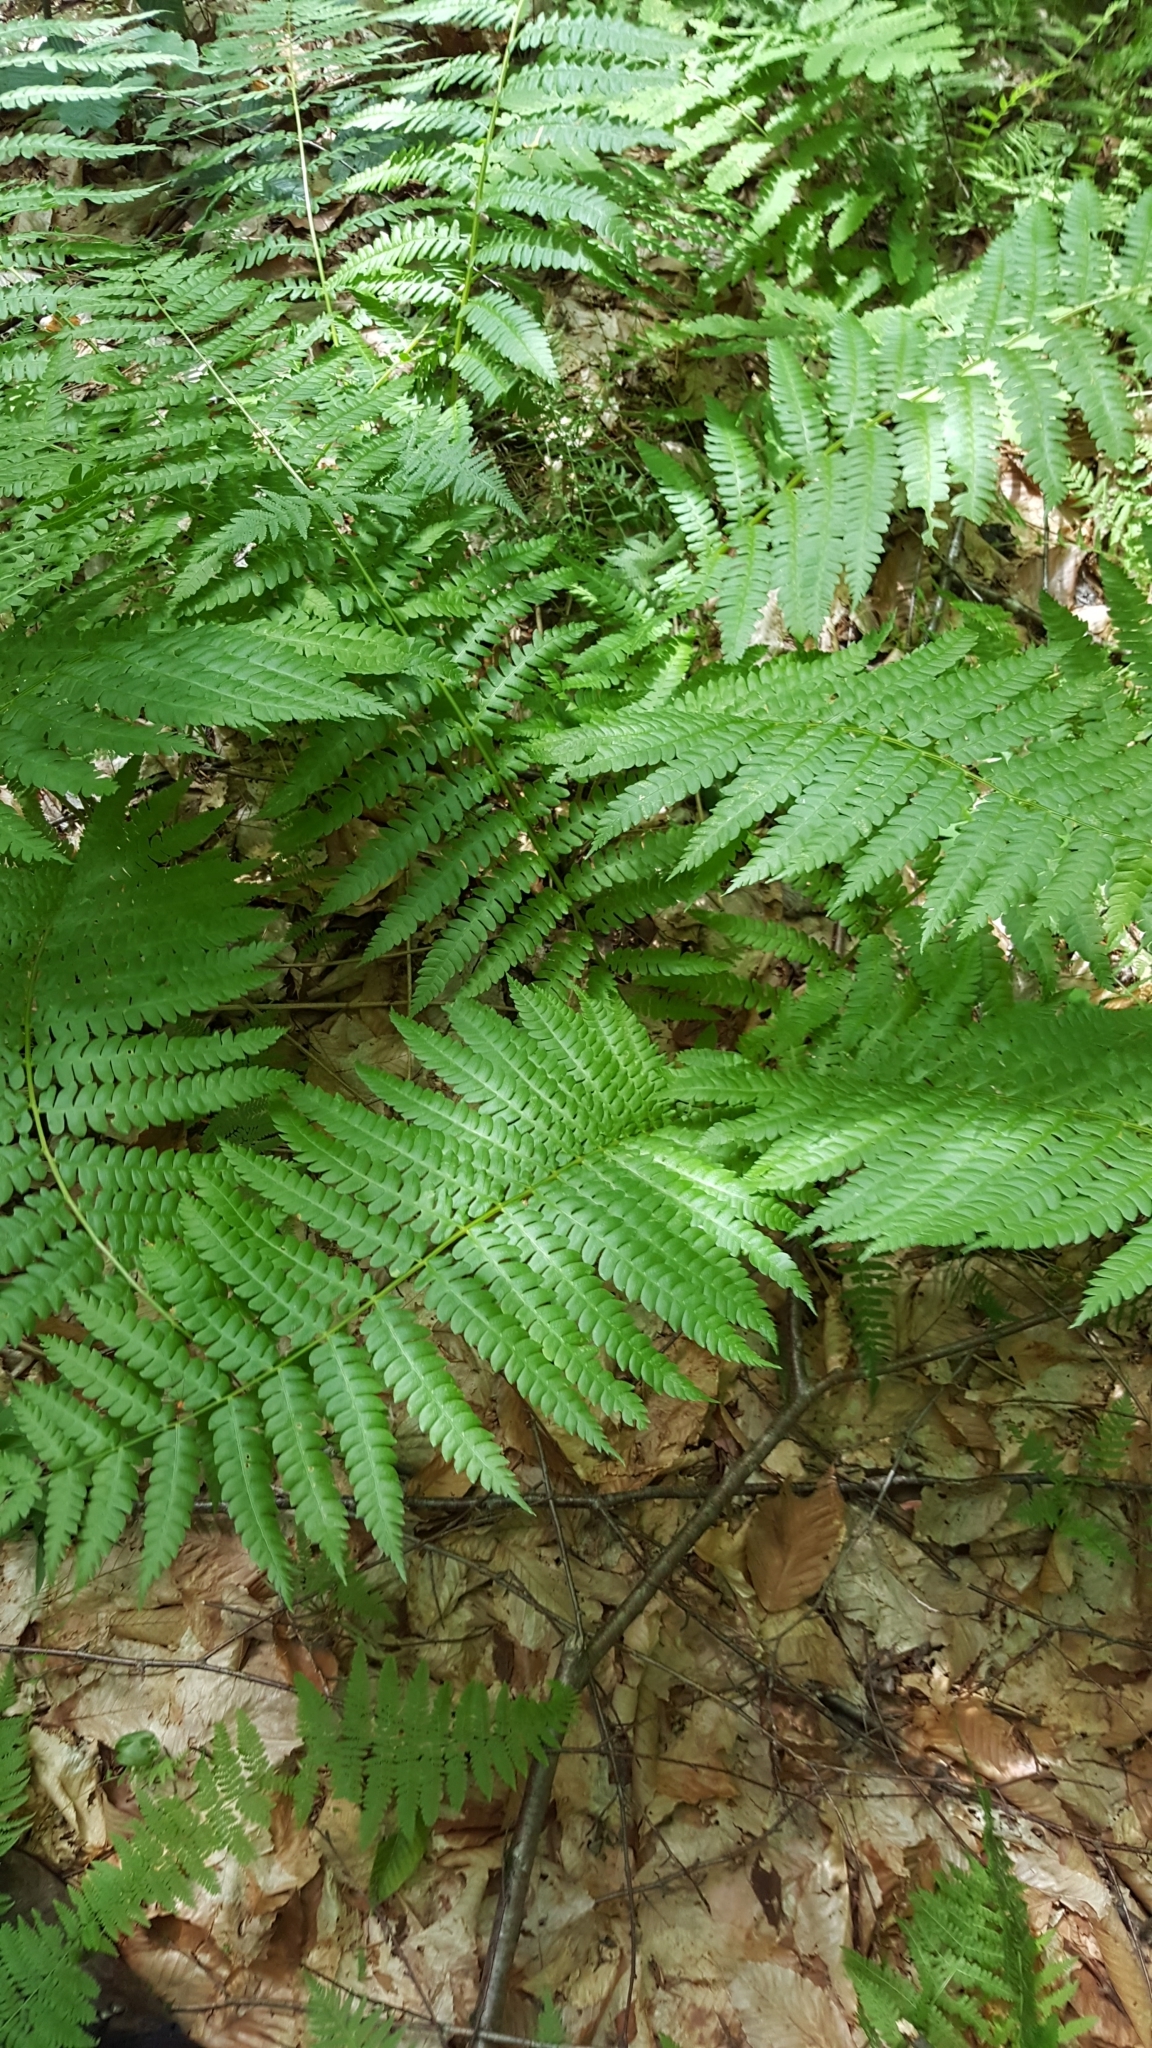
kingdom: Plantae
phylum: Tracheophyta
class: Polypodiopsida
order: Osmundales
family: Osmundaceae
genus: Osmundastrum
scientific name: Osmundastrum cinnamomeum
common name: Cinnamon fern
